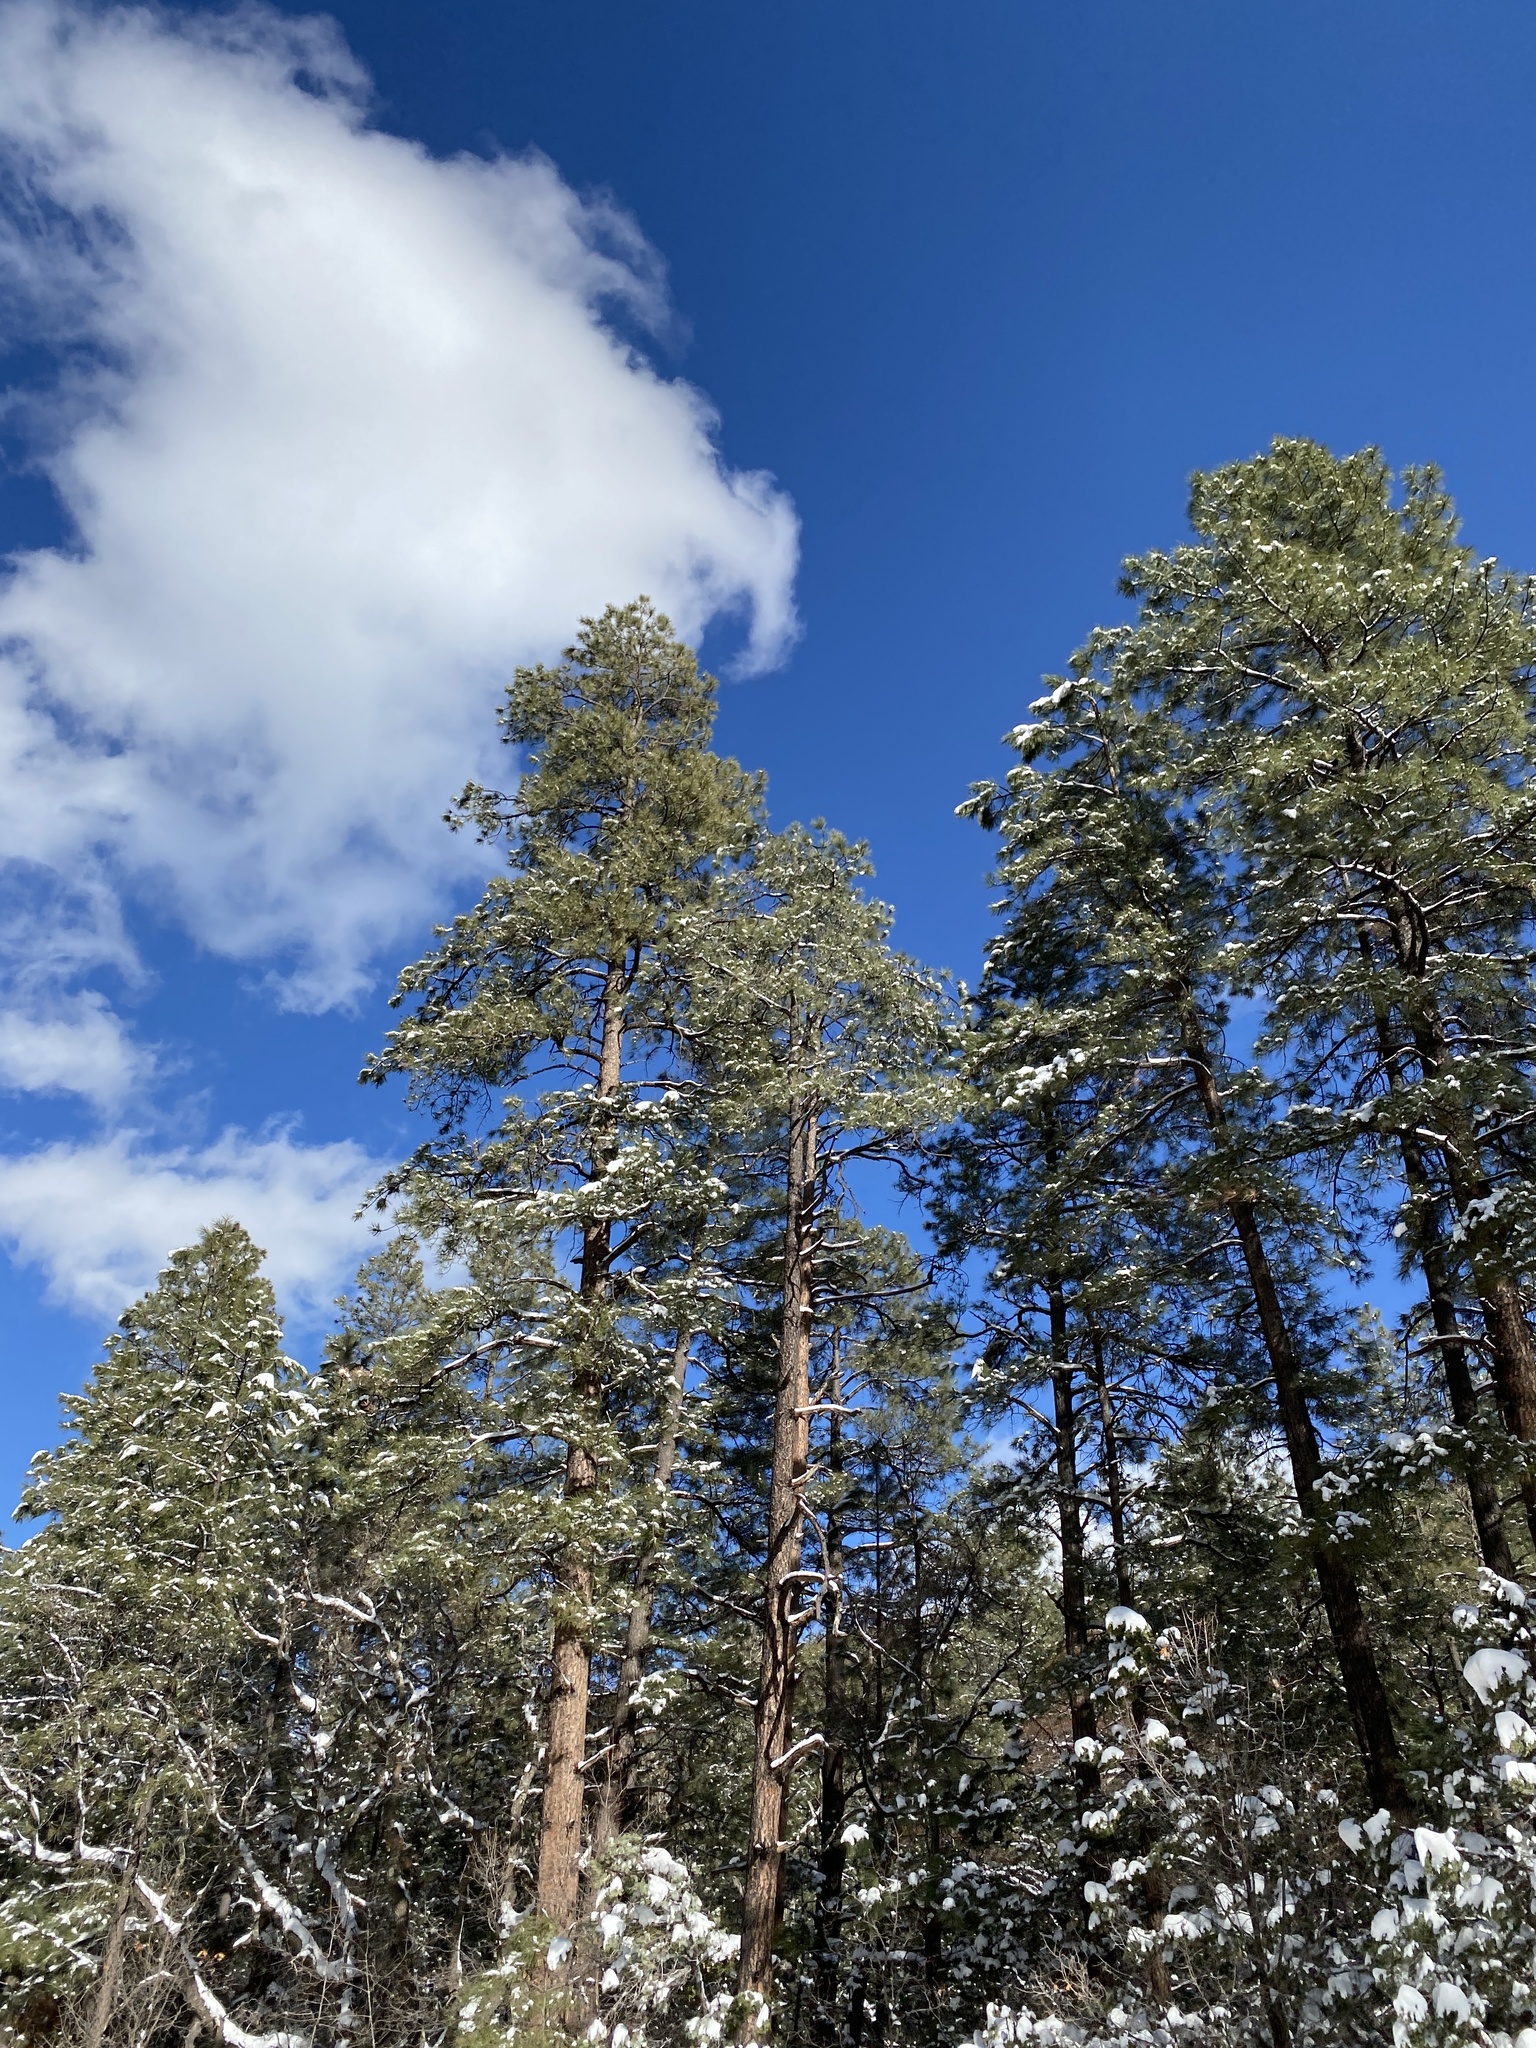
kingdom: Plantae
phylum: Tracheophyta
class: Pinopsida
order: Pinales
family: Pinaceae
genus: Pinus
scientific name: Pinus ponderosa
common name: Western yellow-pine
